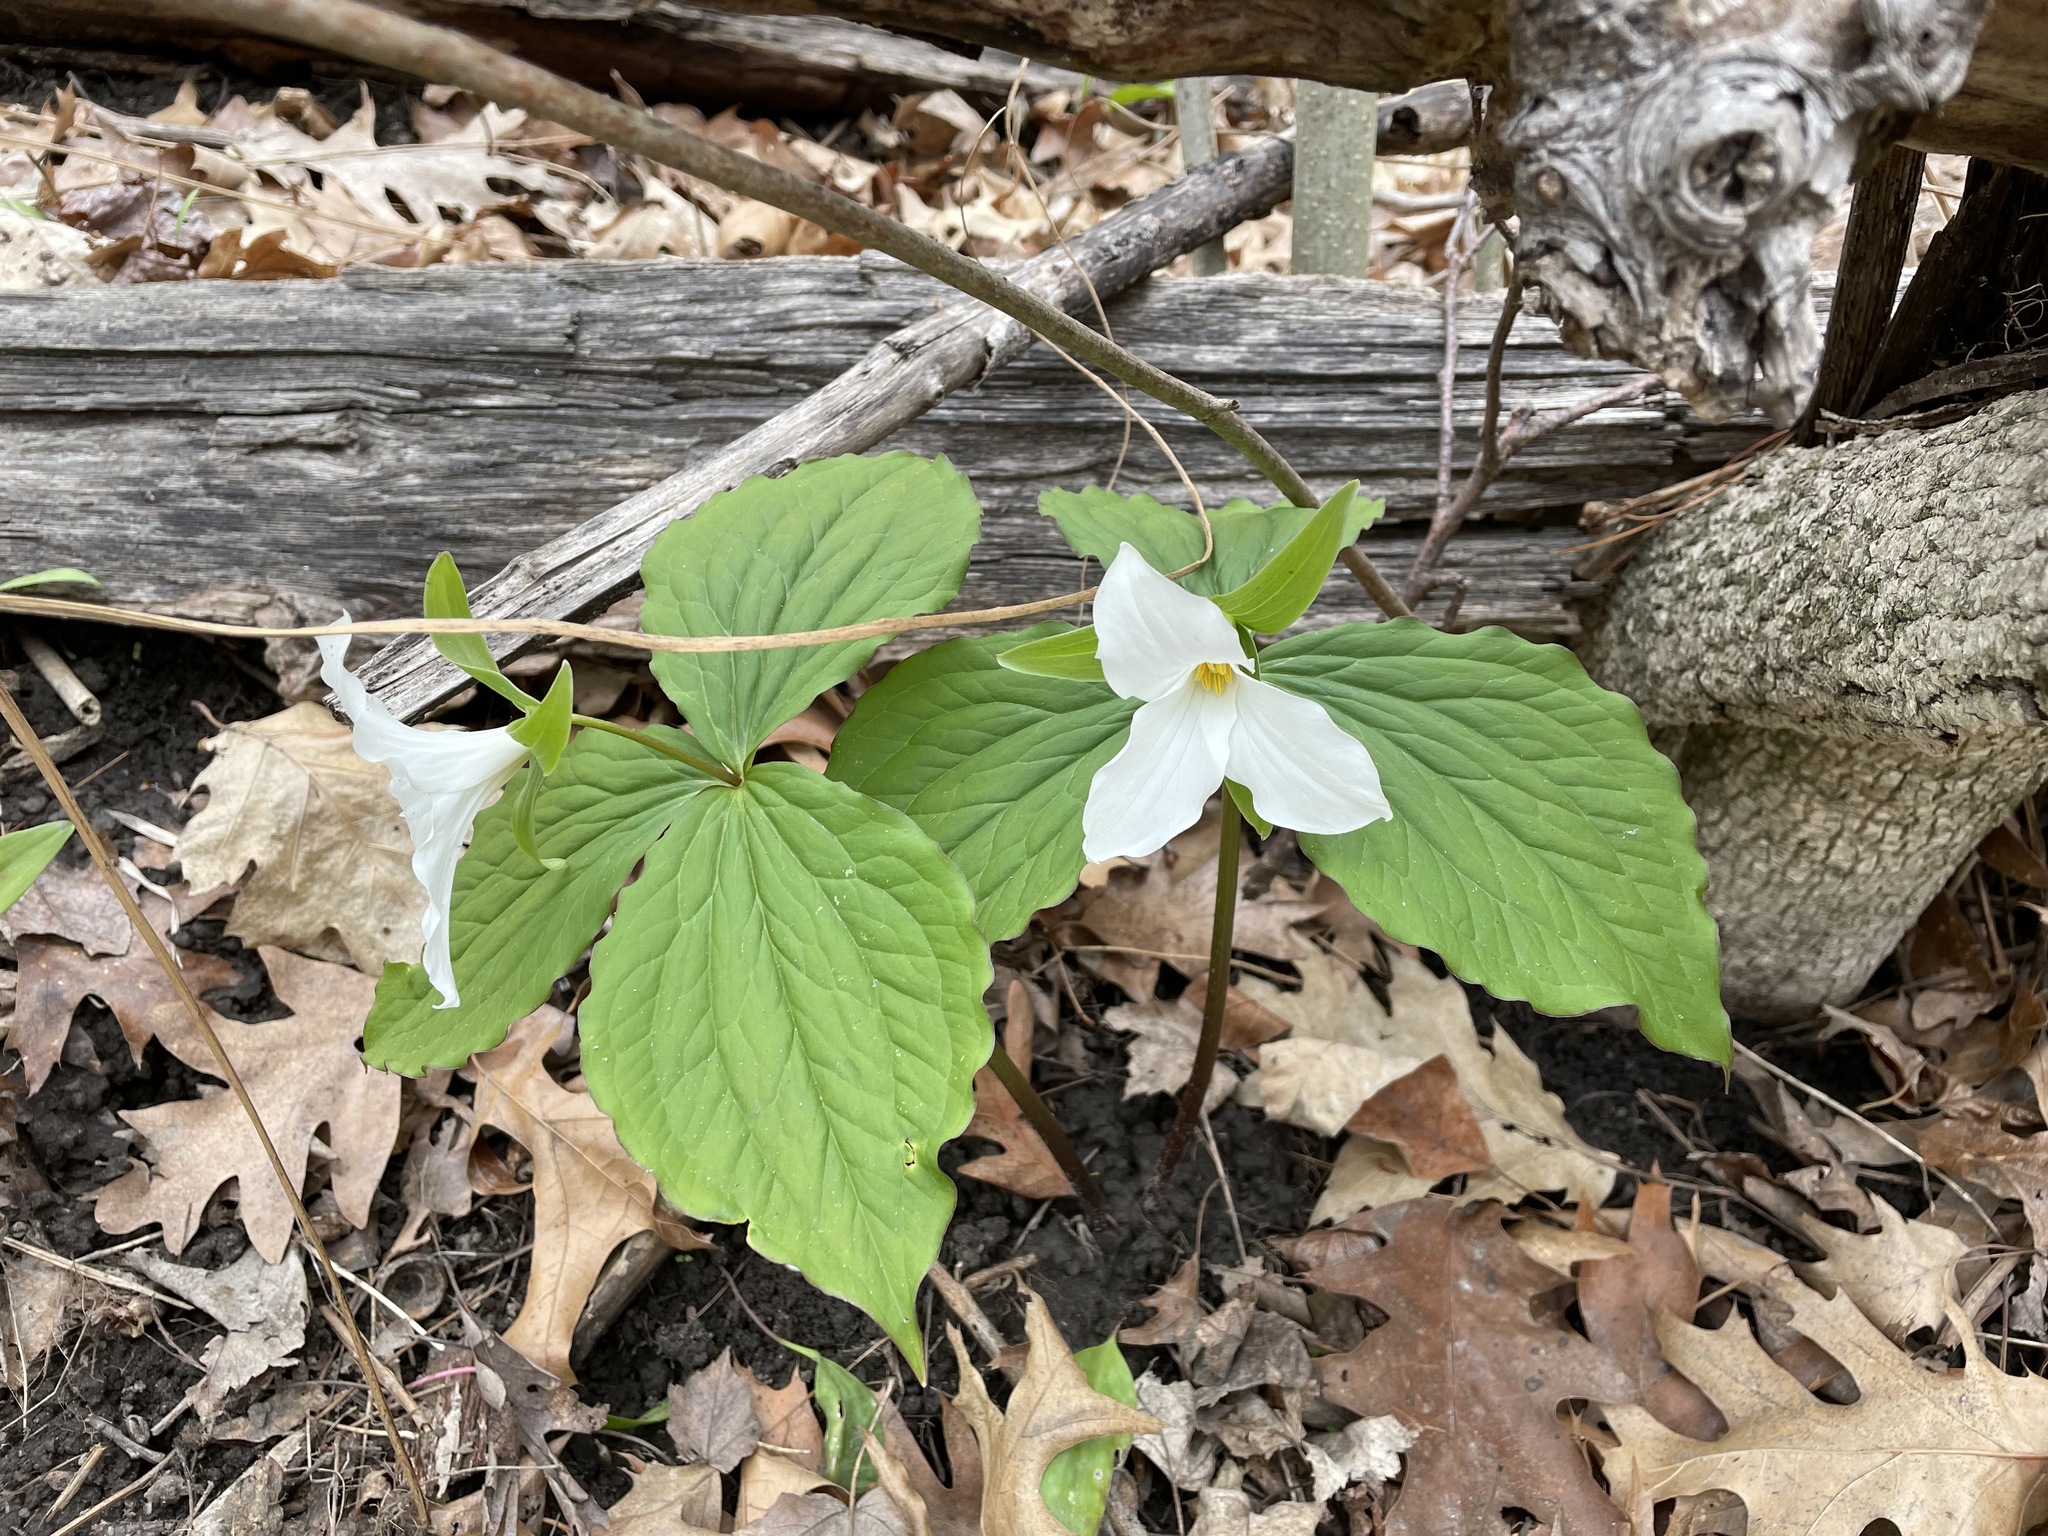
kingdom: Plantae
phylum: Tracheophyta
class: Liliopsida
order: Liliales
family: Melanthiaceae
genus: Trillium
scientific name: Trillium grandiflorum
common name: Great white trillium
